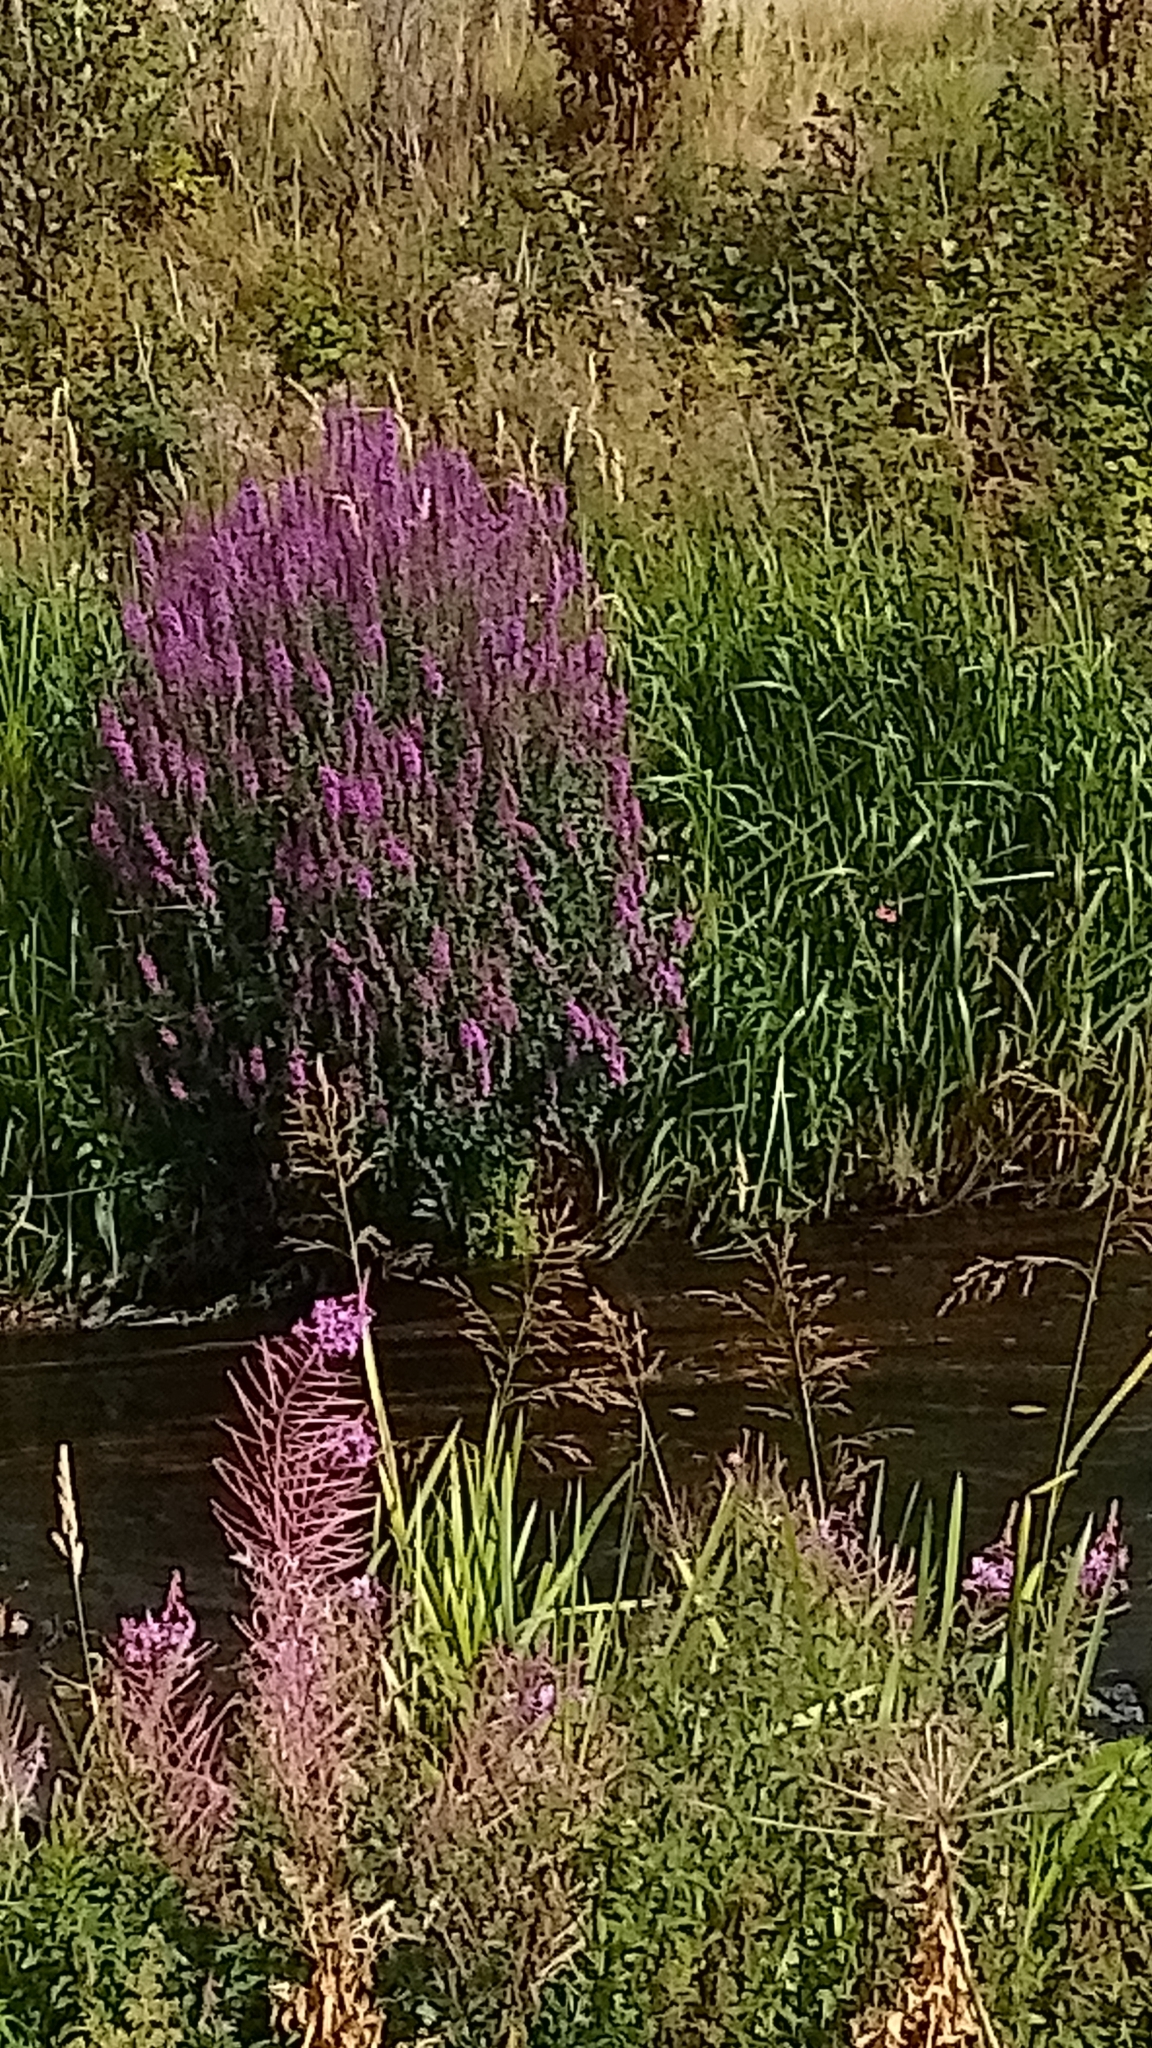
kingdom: Plantae
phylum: Tracheophyta
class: Magnoliopsida
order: Myrtales
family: Lythraceae
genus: Lythrum
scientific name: Lythrum salicaria
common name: Purple loosestrife
